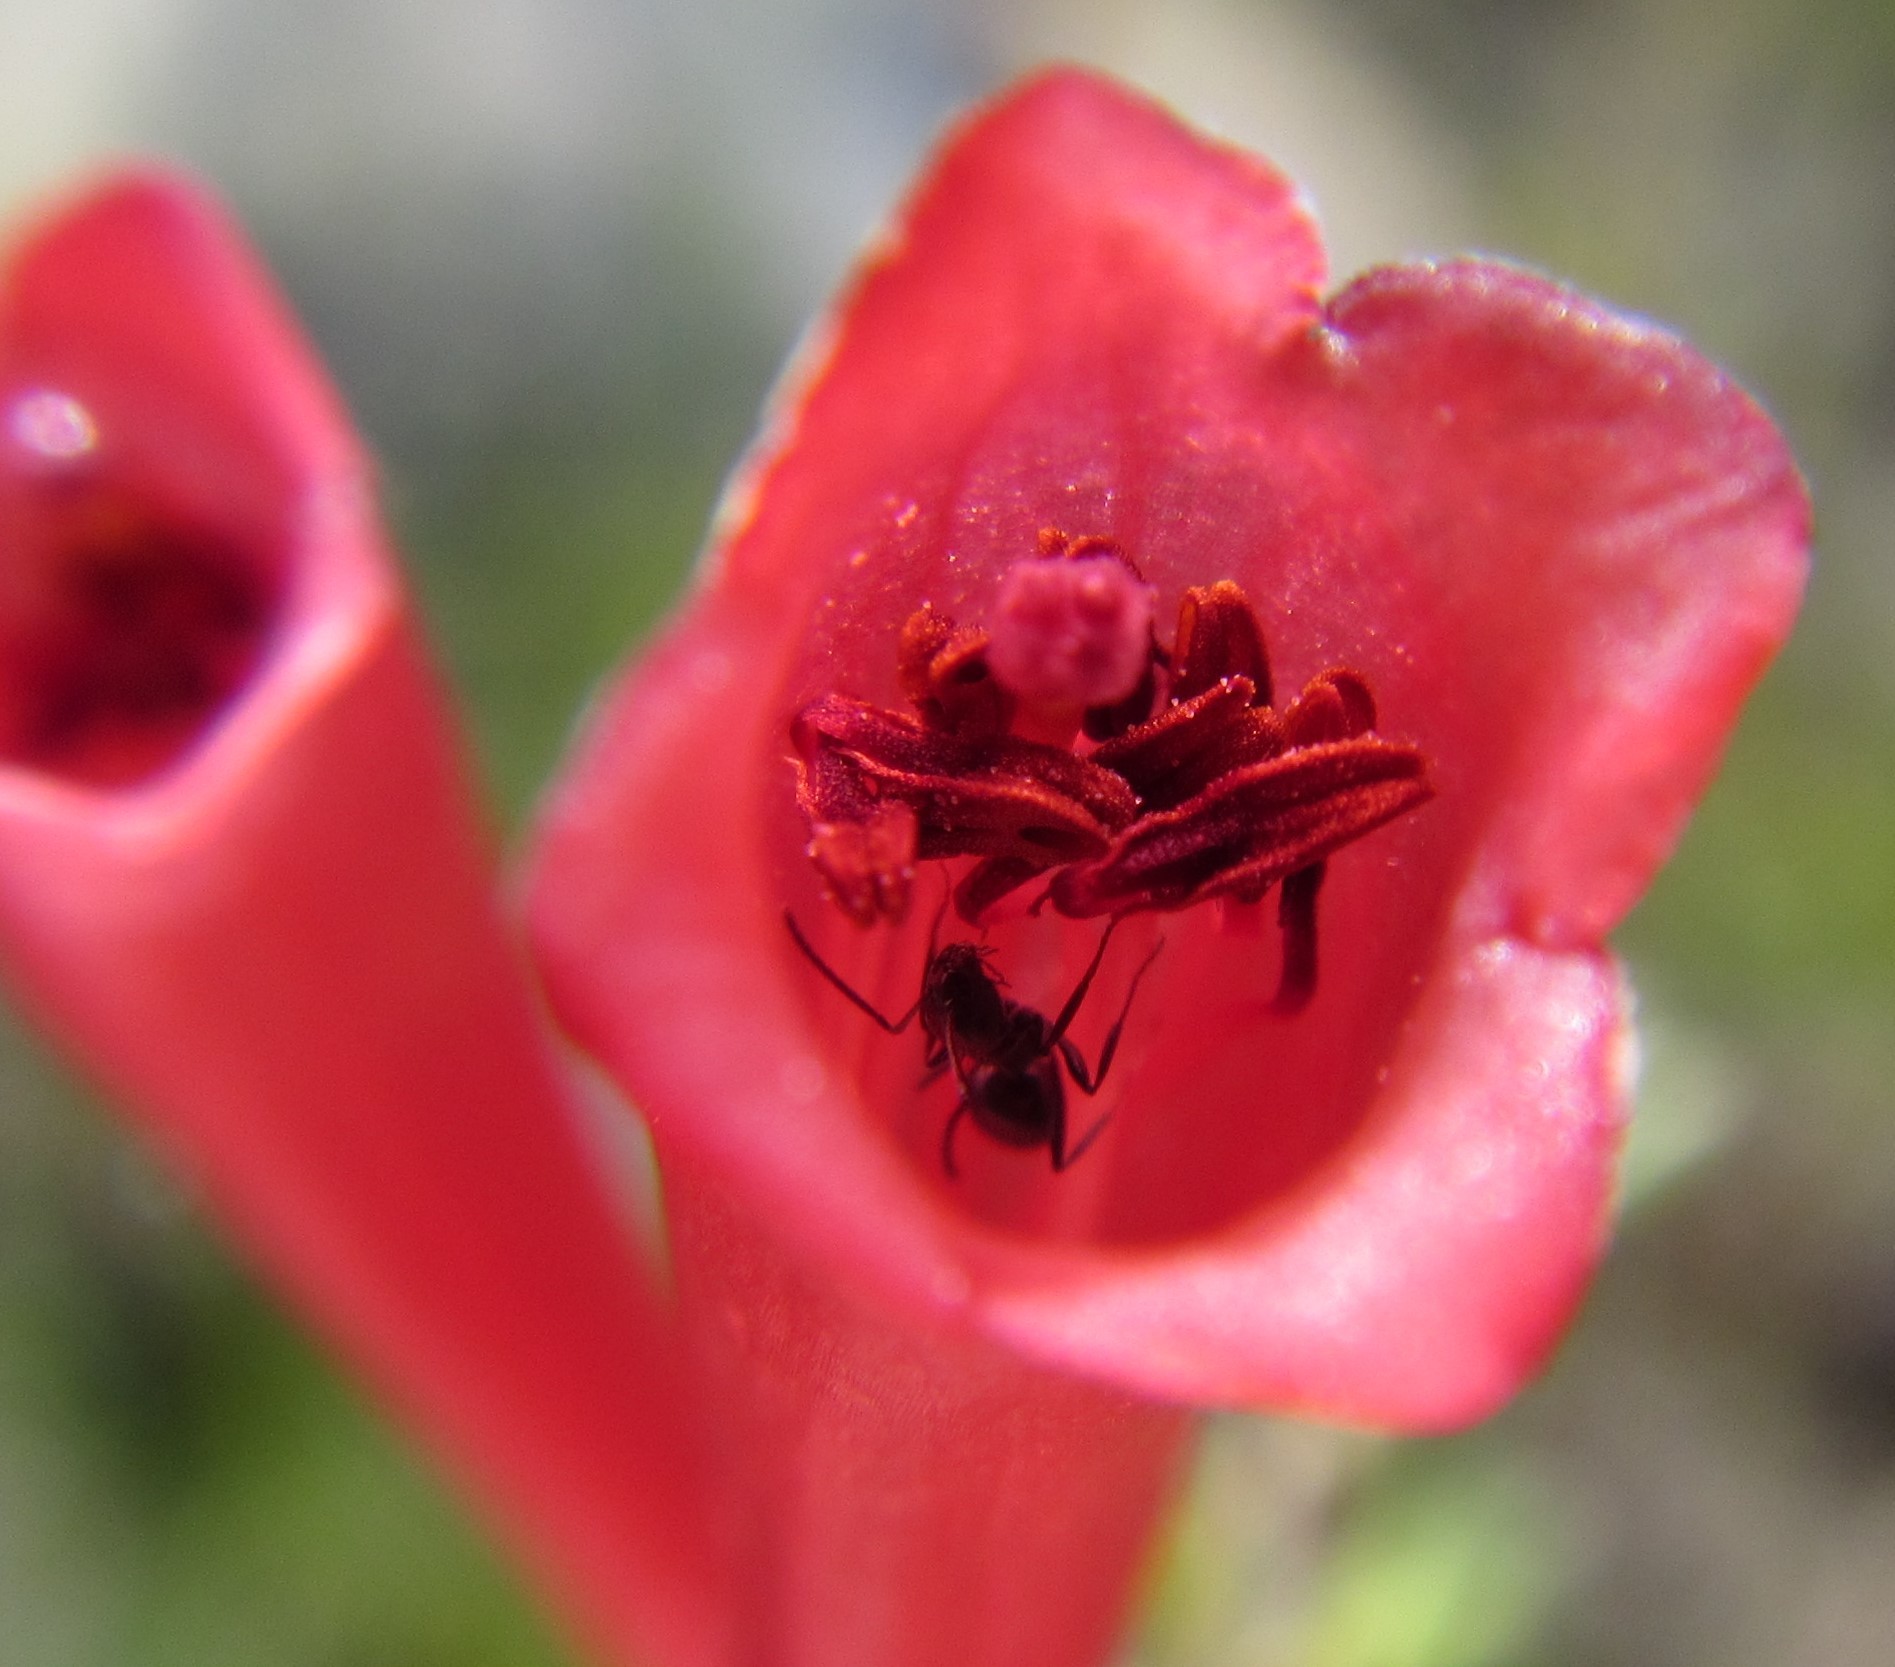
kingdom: Plantae
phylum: Tracheophyta
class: Magnoliopsida
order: Ericales
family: Ericaceae
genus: Erica
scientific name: Erica cruenta
